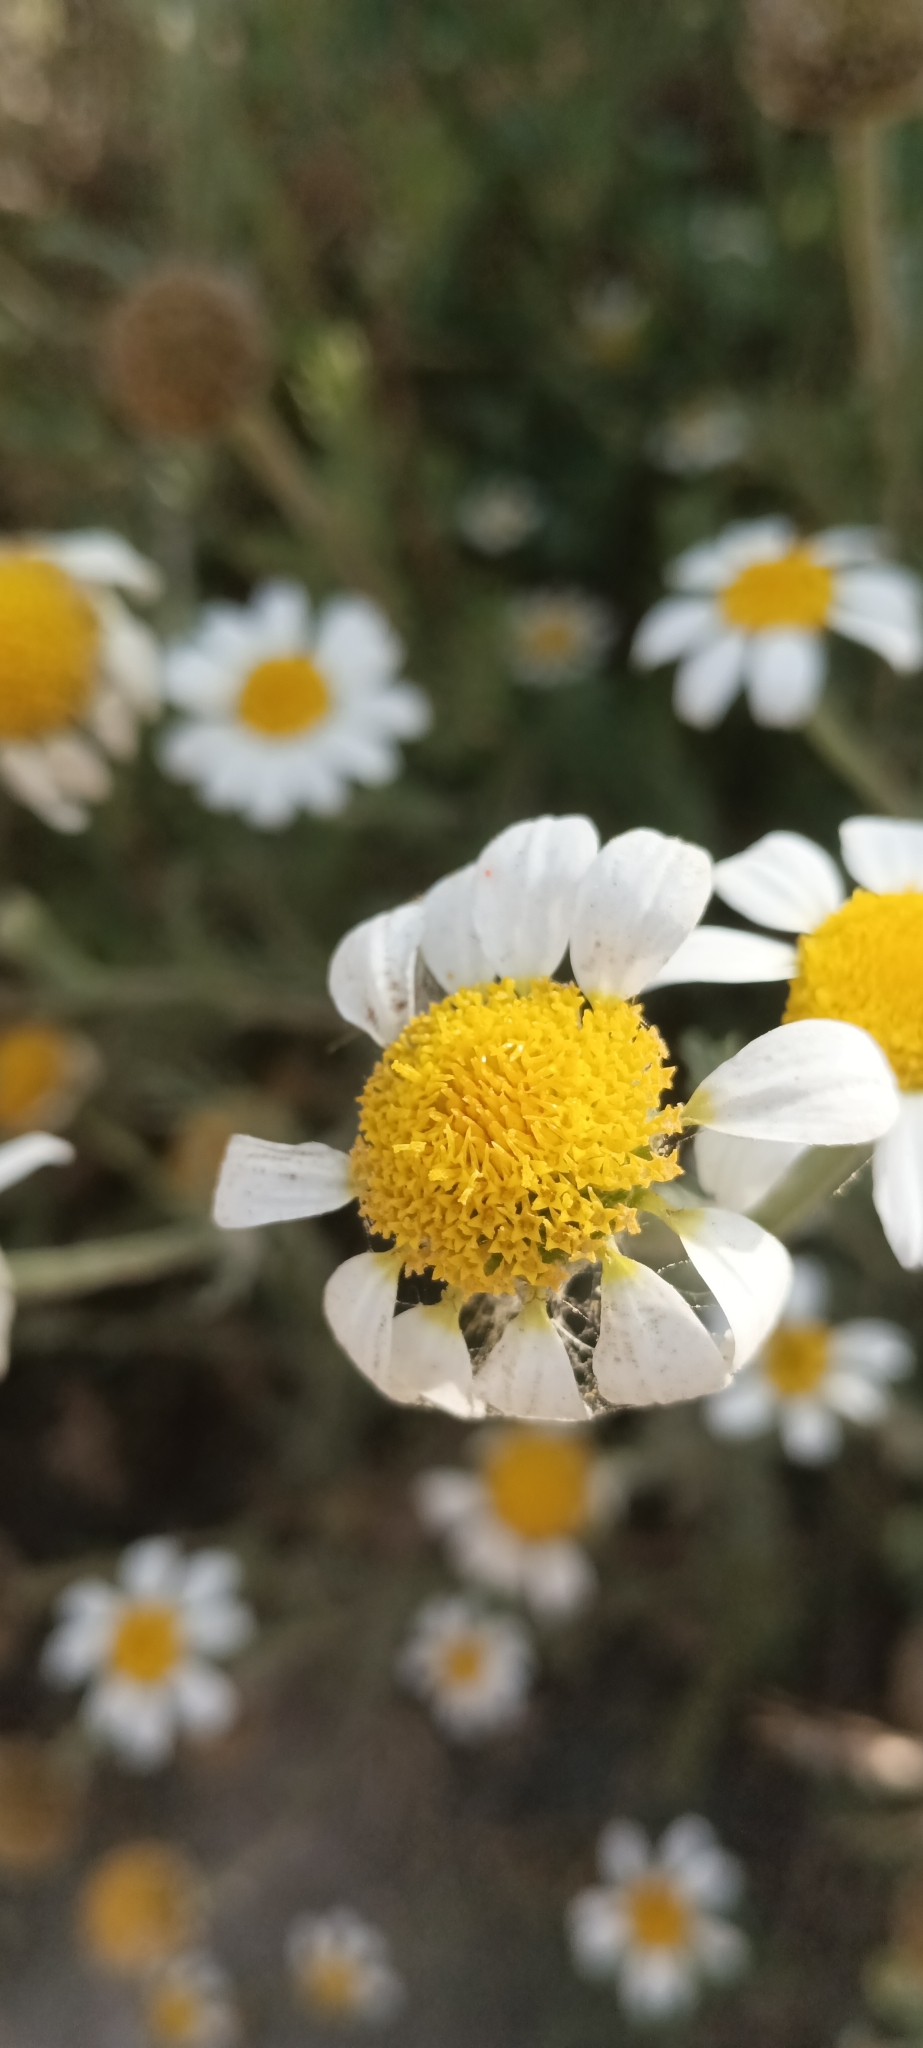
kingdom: Plantae
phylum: Tracheophyta
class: Magnoliopsida
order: Asterales
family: Asteraceae
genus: Anacyclus
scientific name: Anacyclus clavatus
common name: Whitebuttons
